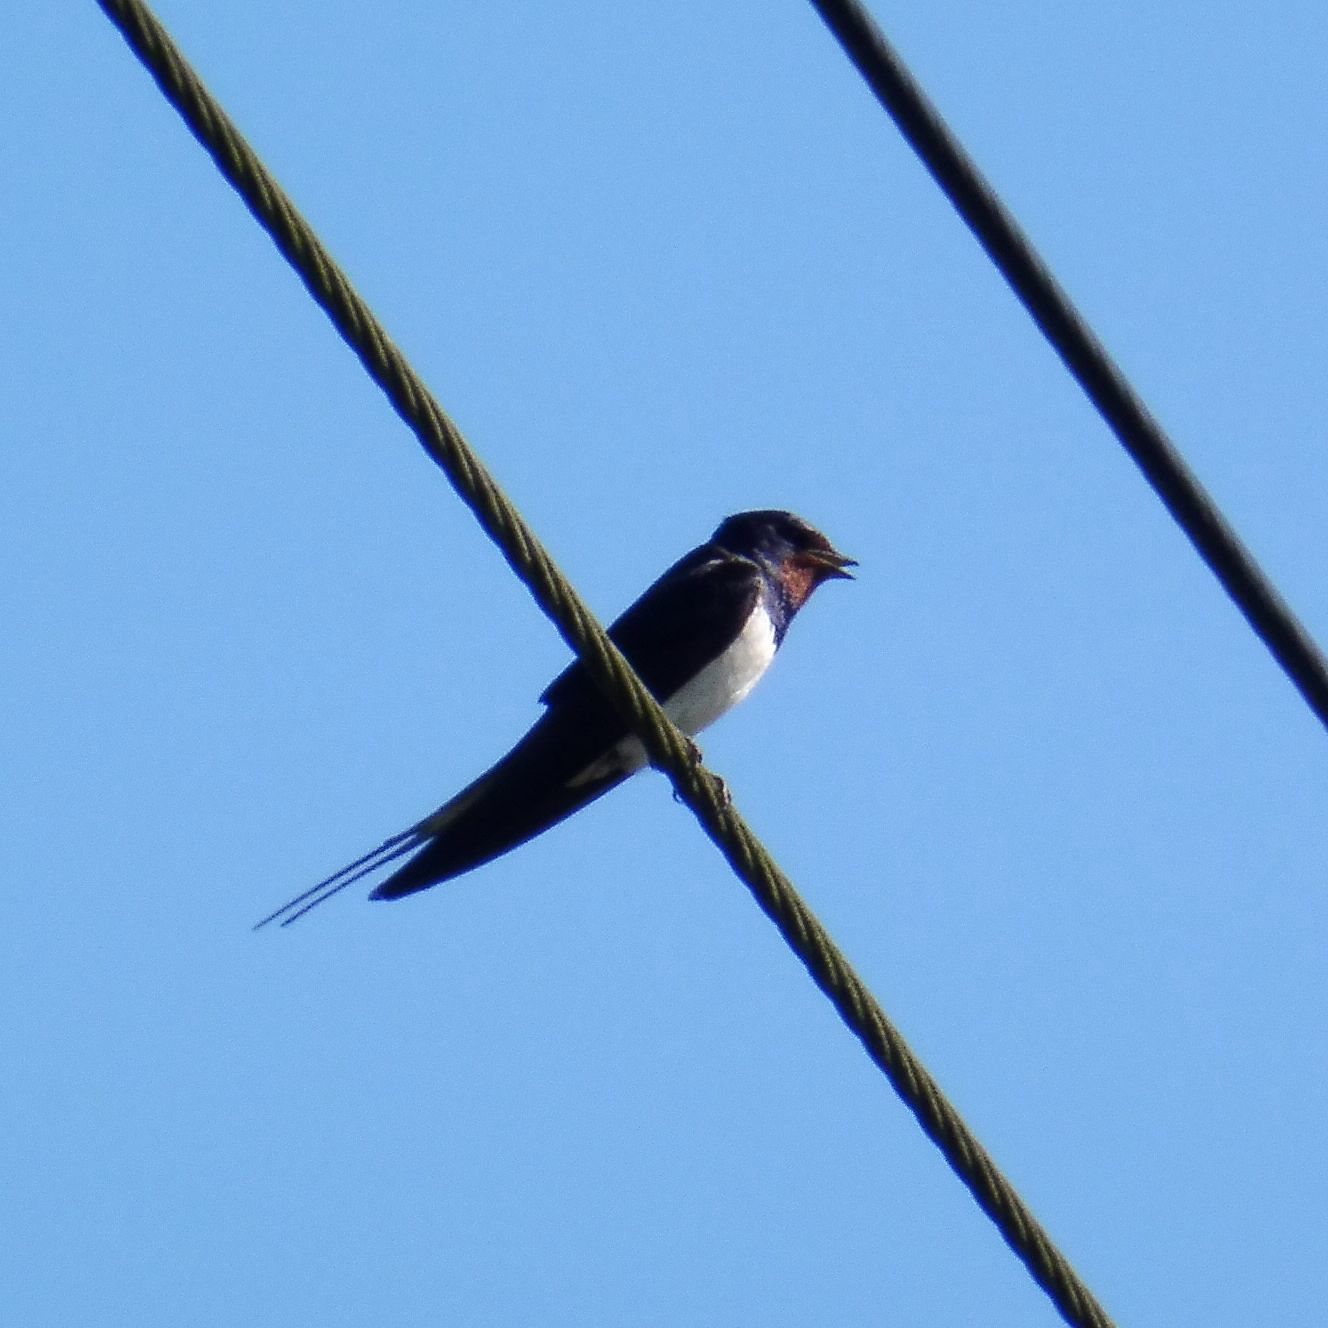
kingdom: Animalia
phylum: Chordata
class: Aves
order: Passeriformes
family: Hirundinidae
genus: Hirundo
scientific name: Hirundo rustica
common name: Barn swallow
